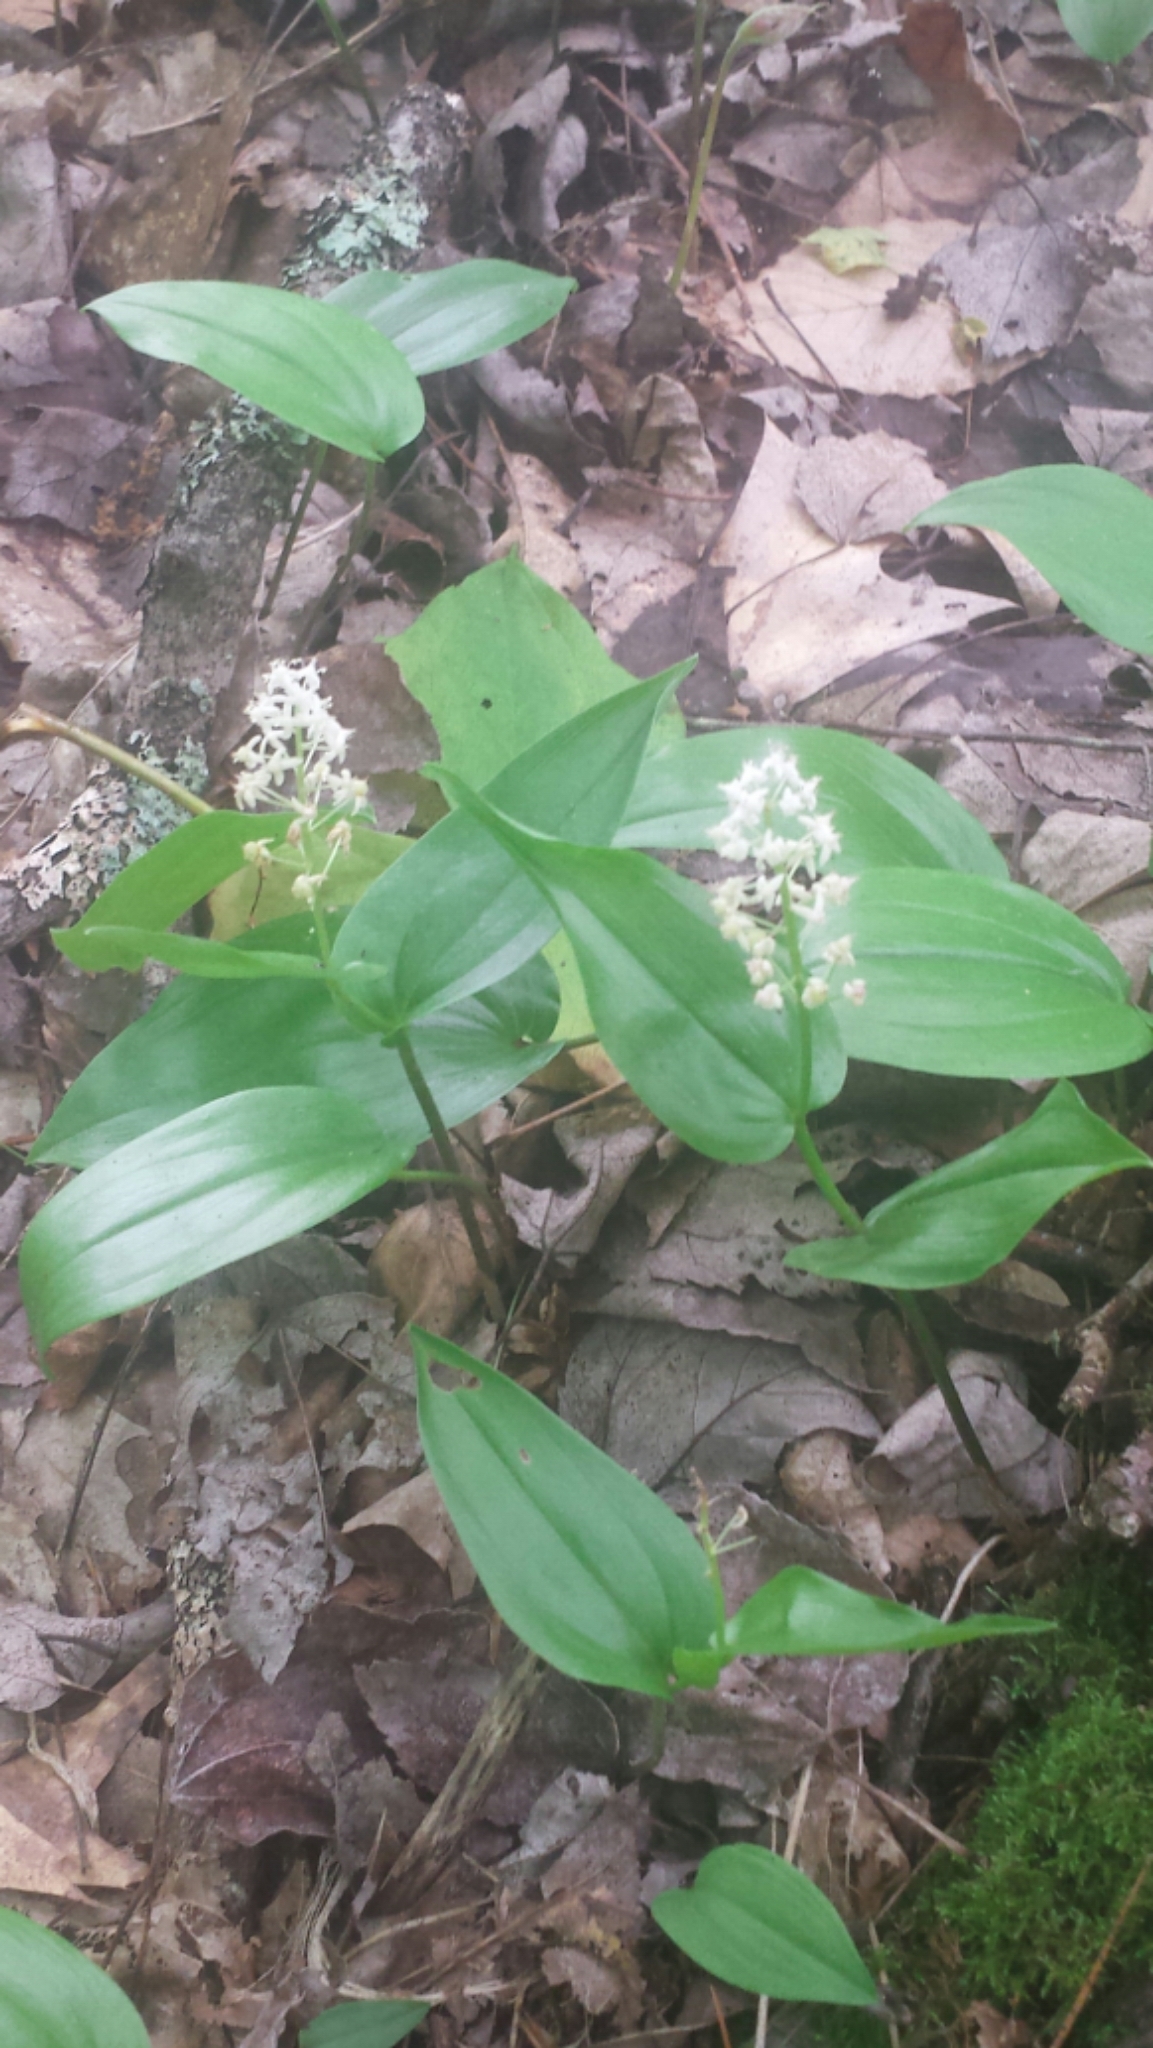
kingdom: Plantae
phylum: Tracheophyta
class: Liliopsida
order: Asparagales
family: Asparagaceae
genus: Maianthemum
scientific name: Maianthemum canadense
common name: False lily-of-the-valley
